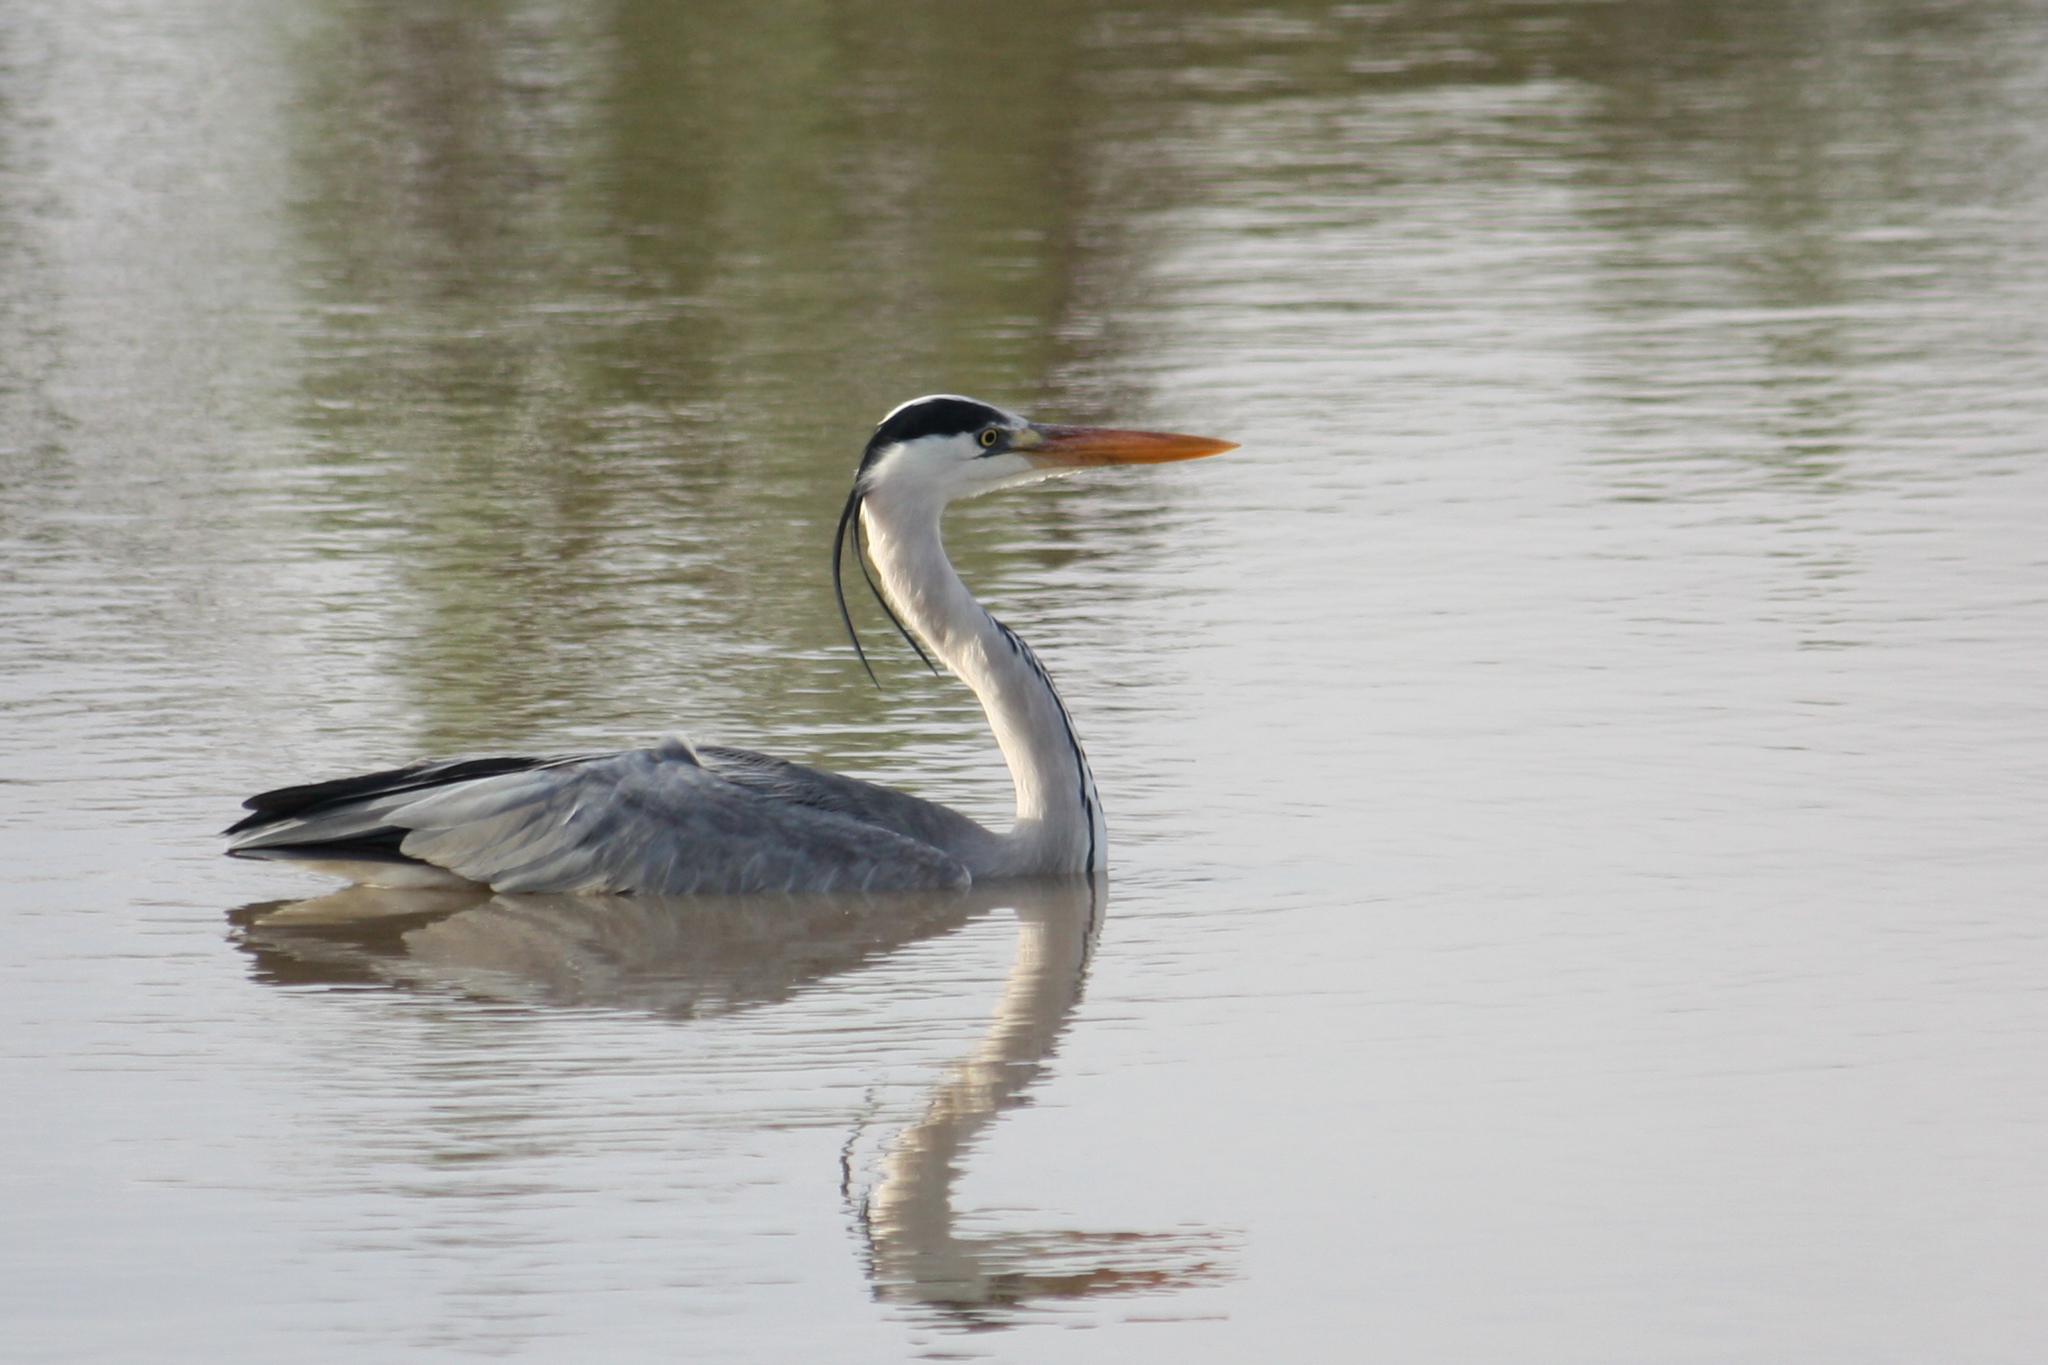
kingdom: Animalia
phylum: Chordata
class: Aves
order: Pelecaniformes
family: Ardeidae
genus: Ardea
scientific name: Ardea cinerea
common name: Grey heron
